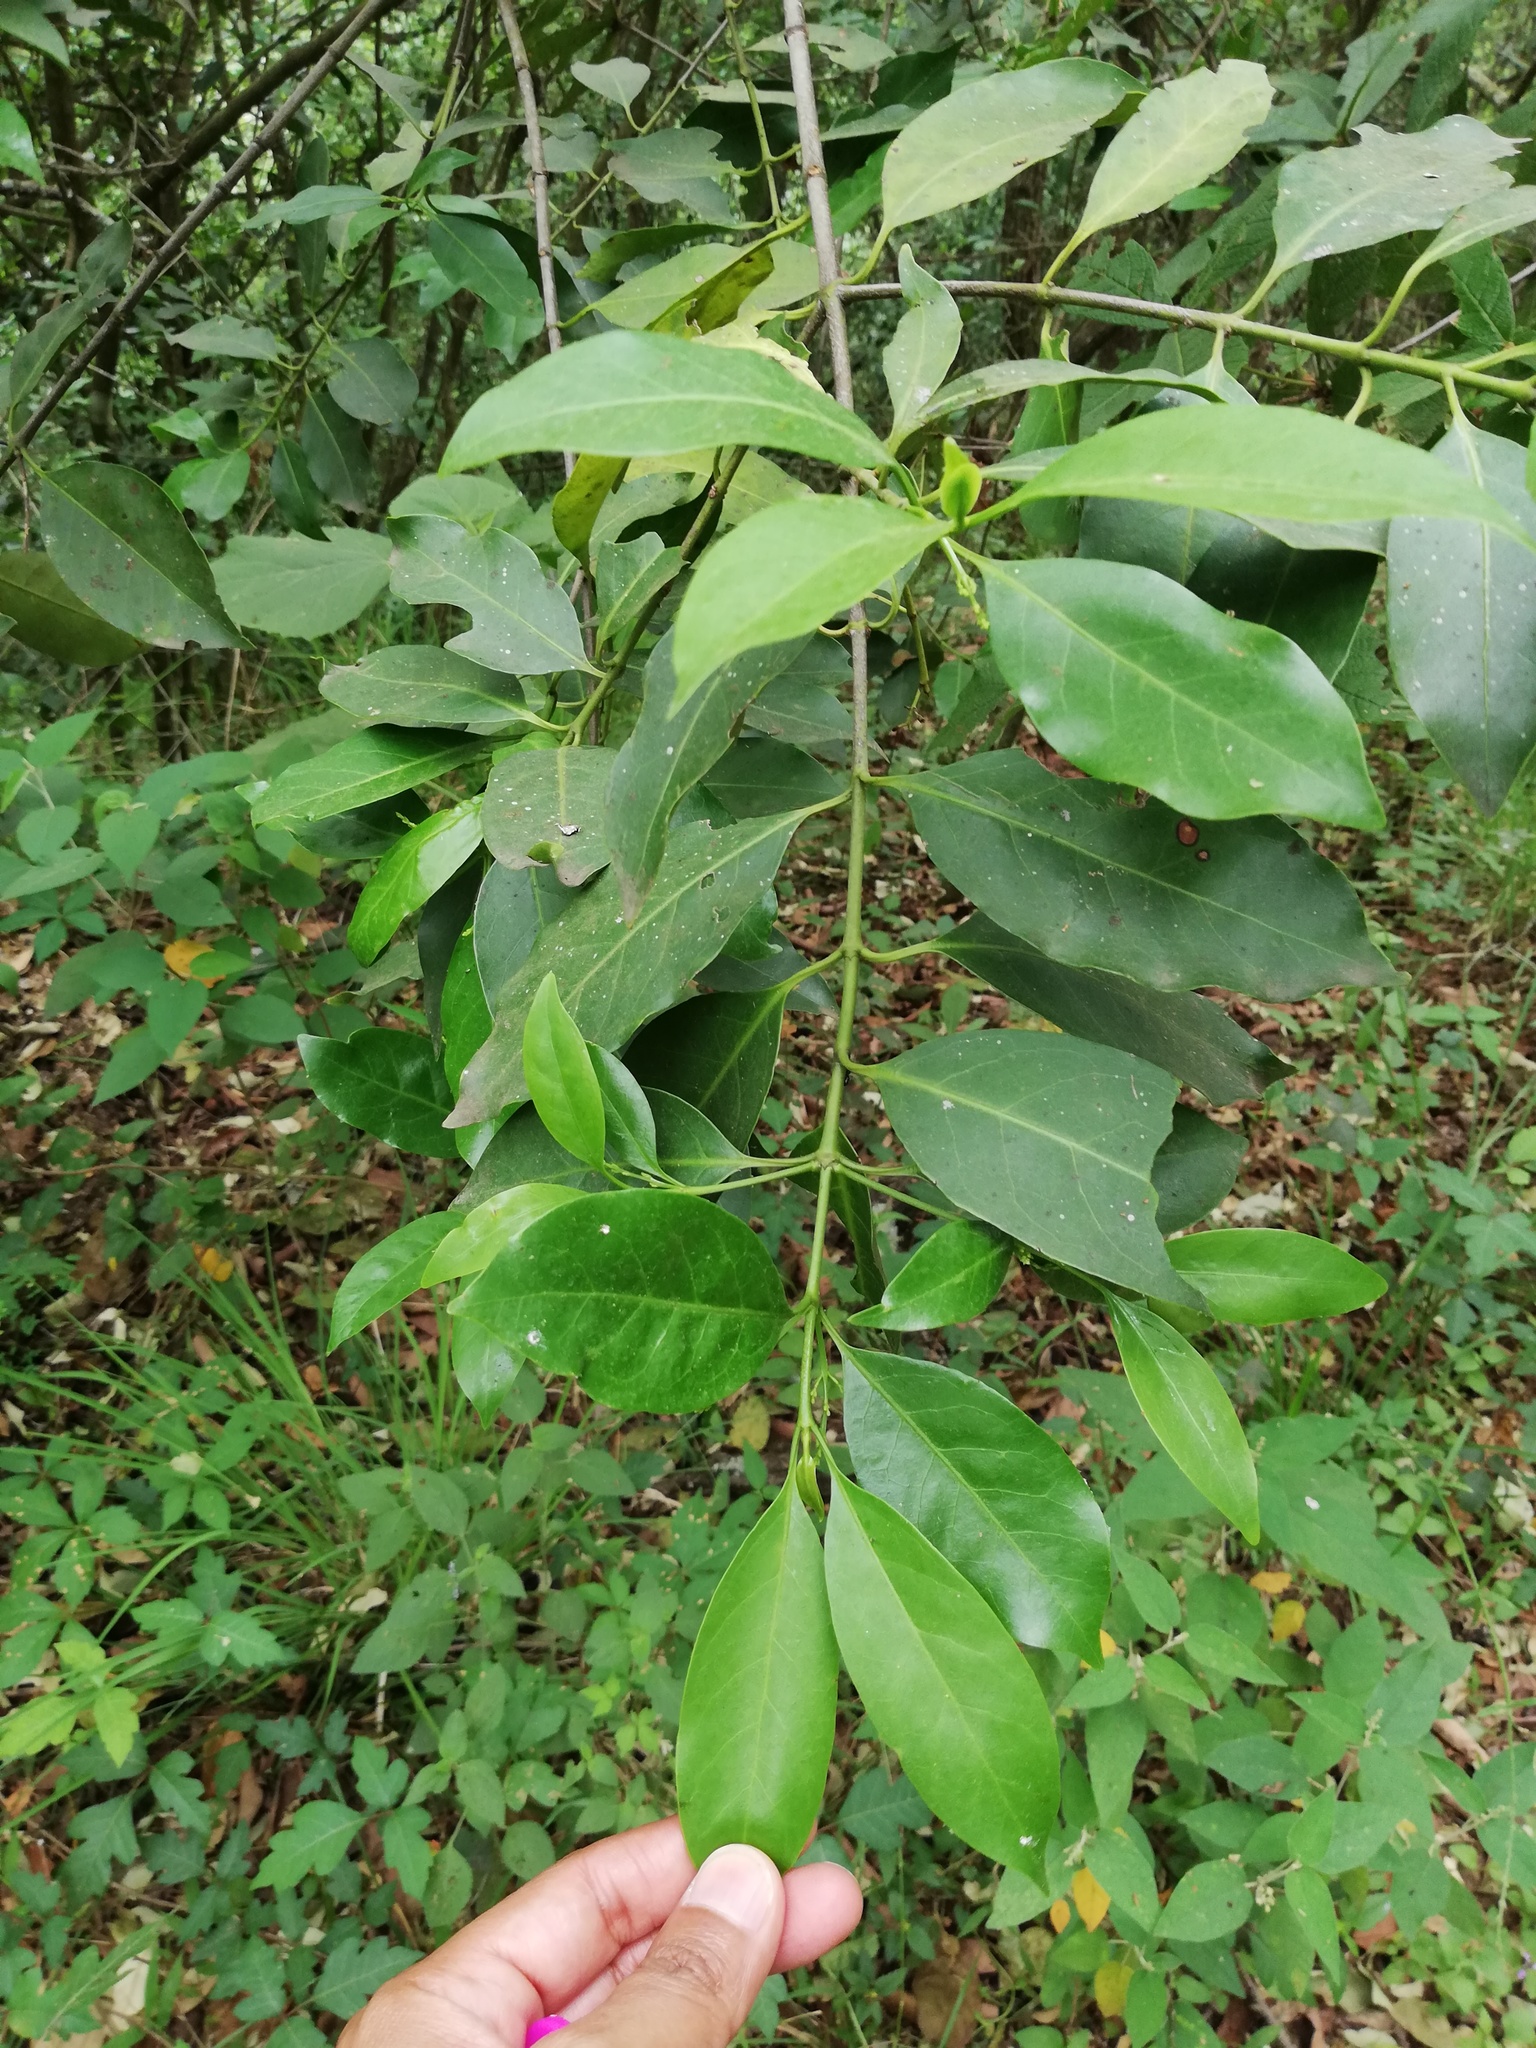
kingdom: Plantae
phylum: Tracheophyta
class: Magnoliopsida
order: Gentianales
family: Rubiaceae
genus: Chiococca
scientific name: Chiococca pachyphylla
